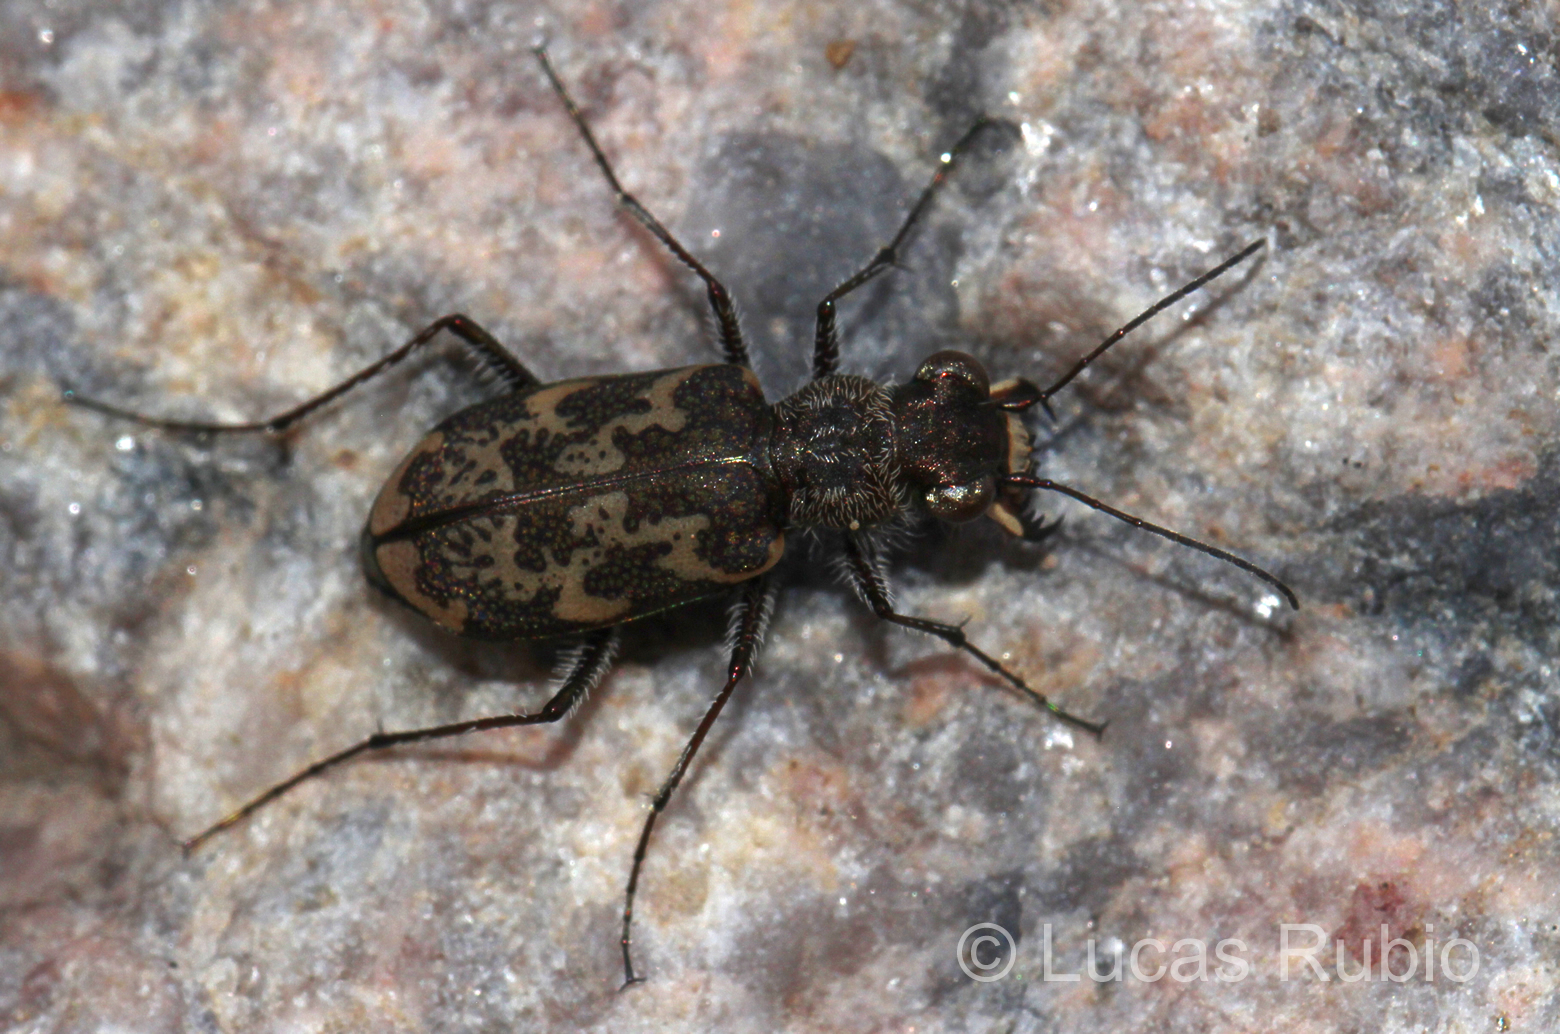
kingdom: Animalia
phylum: Arthropoda
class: Insecta
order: Coleoptera
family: Carabidae
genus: Cylindera
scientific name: Cylindera apiata
